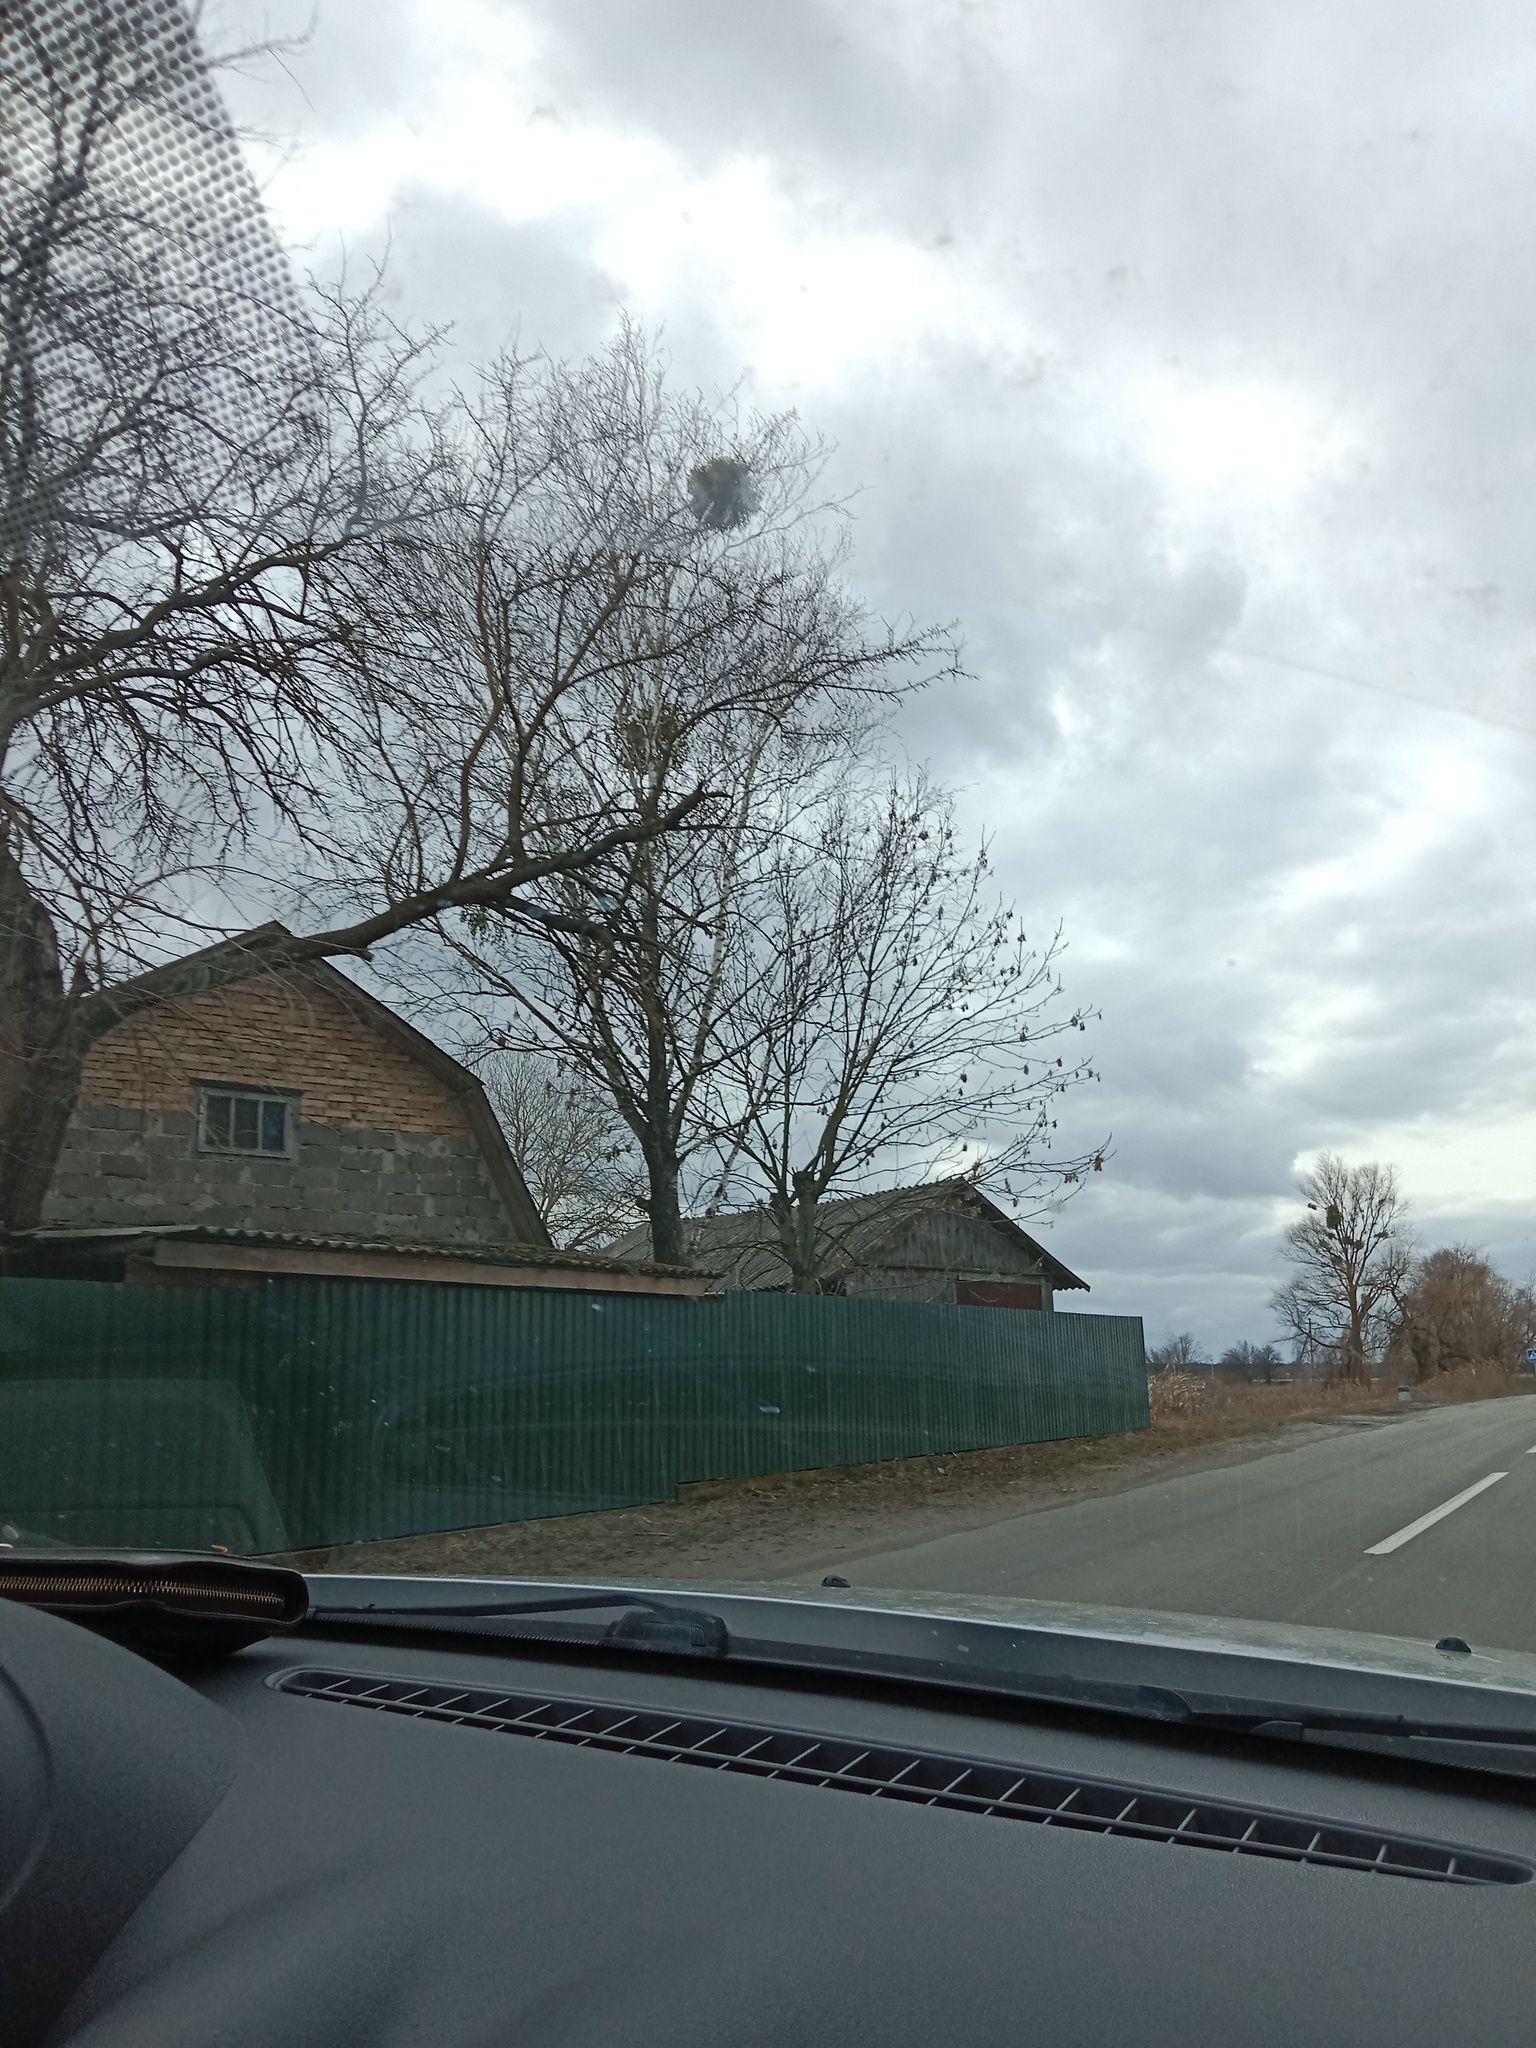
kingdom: Plantae
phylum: Tracheophyta
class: Magnoliopsida
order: Santalales
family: Viscaceae
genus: Viscum
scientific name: Viscum album
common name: Mistletoe
